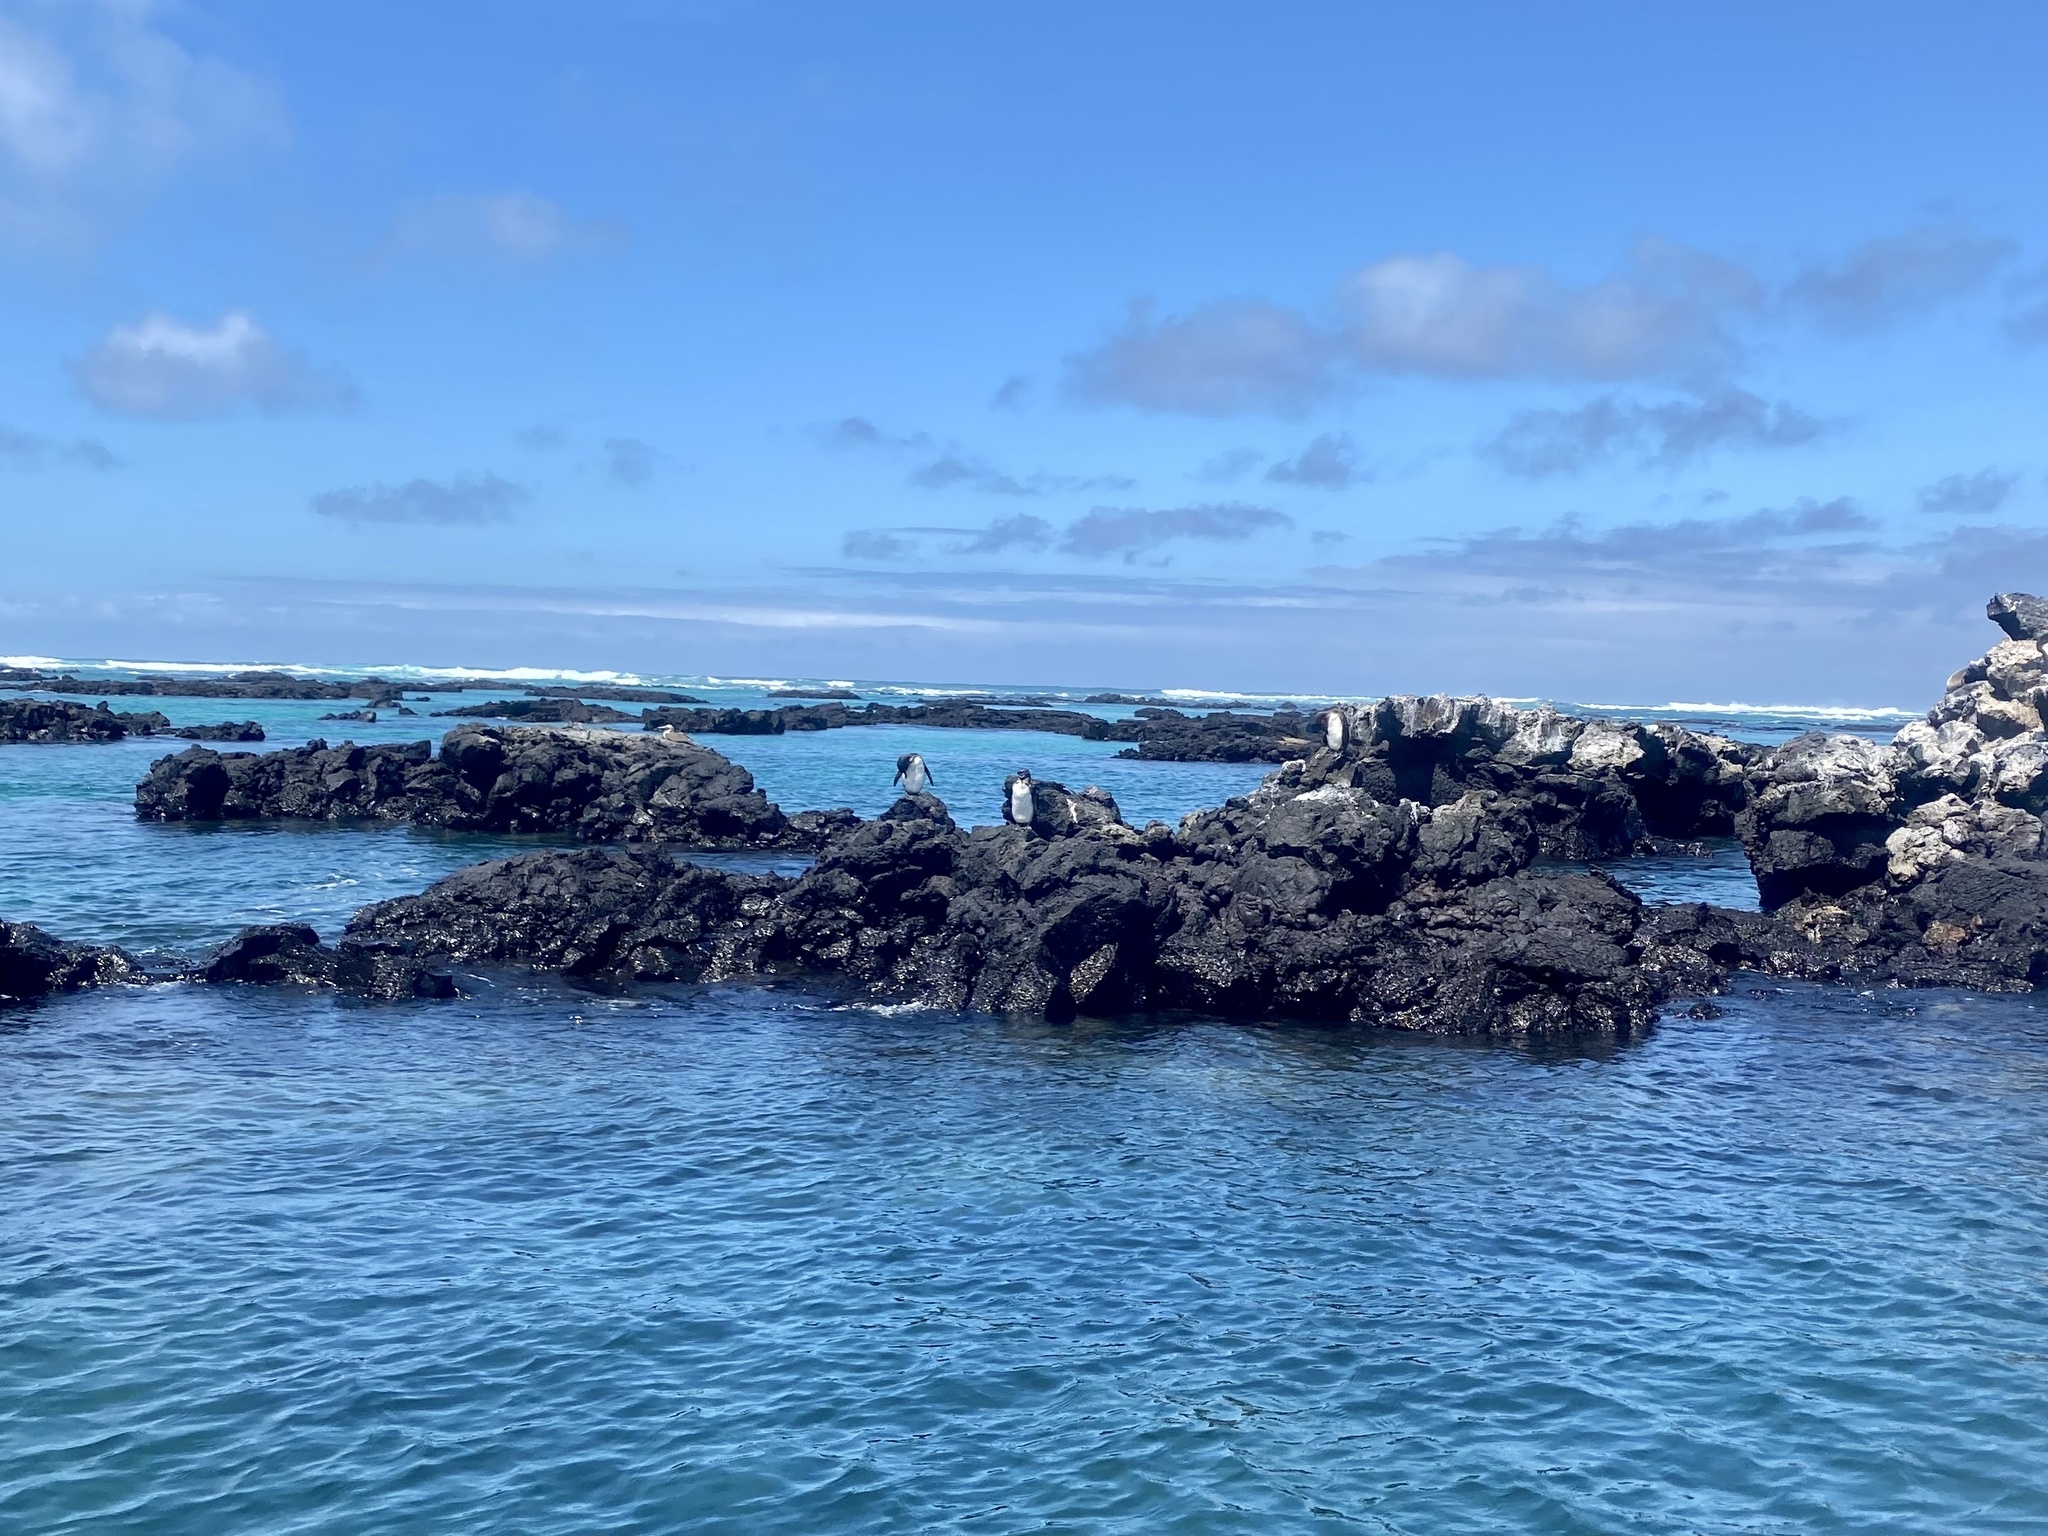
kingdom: Animalia
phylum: Chordata
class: Aves
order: Sphenisciformes
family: Spheniscidae
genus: Spheniscus
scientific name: Spheniscus mendiculus
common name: Galapagos penguin
